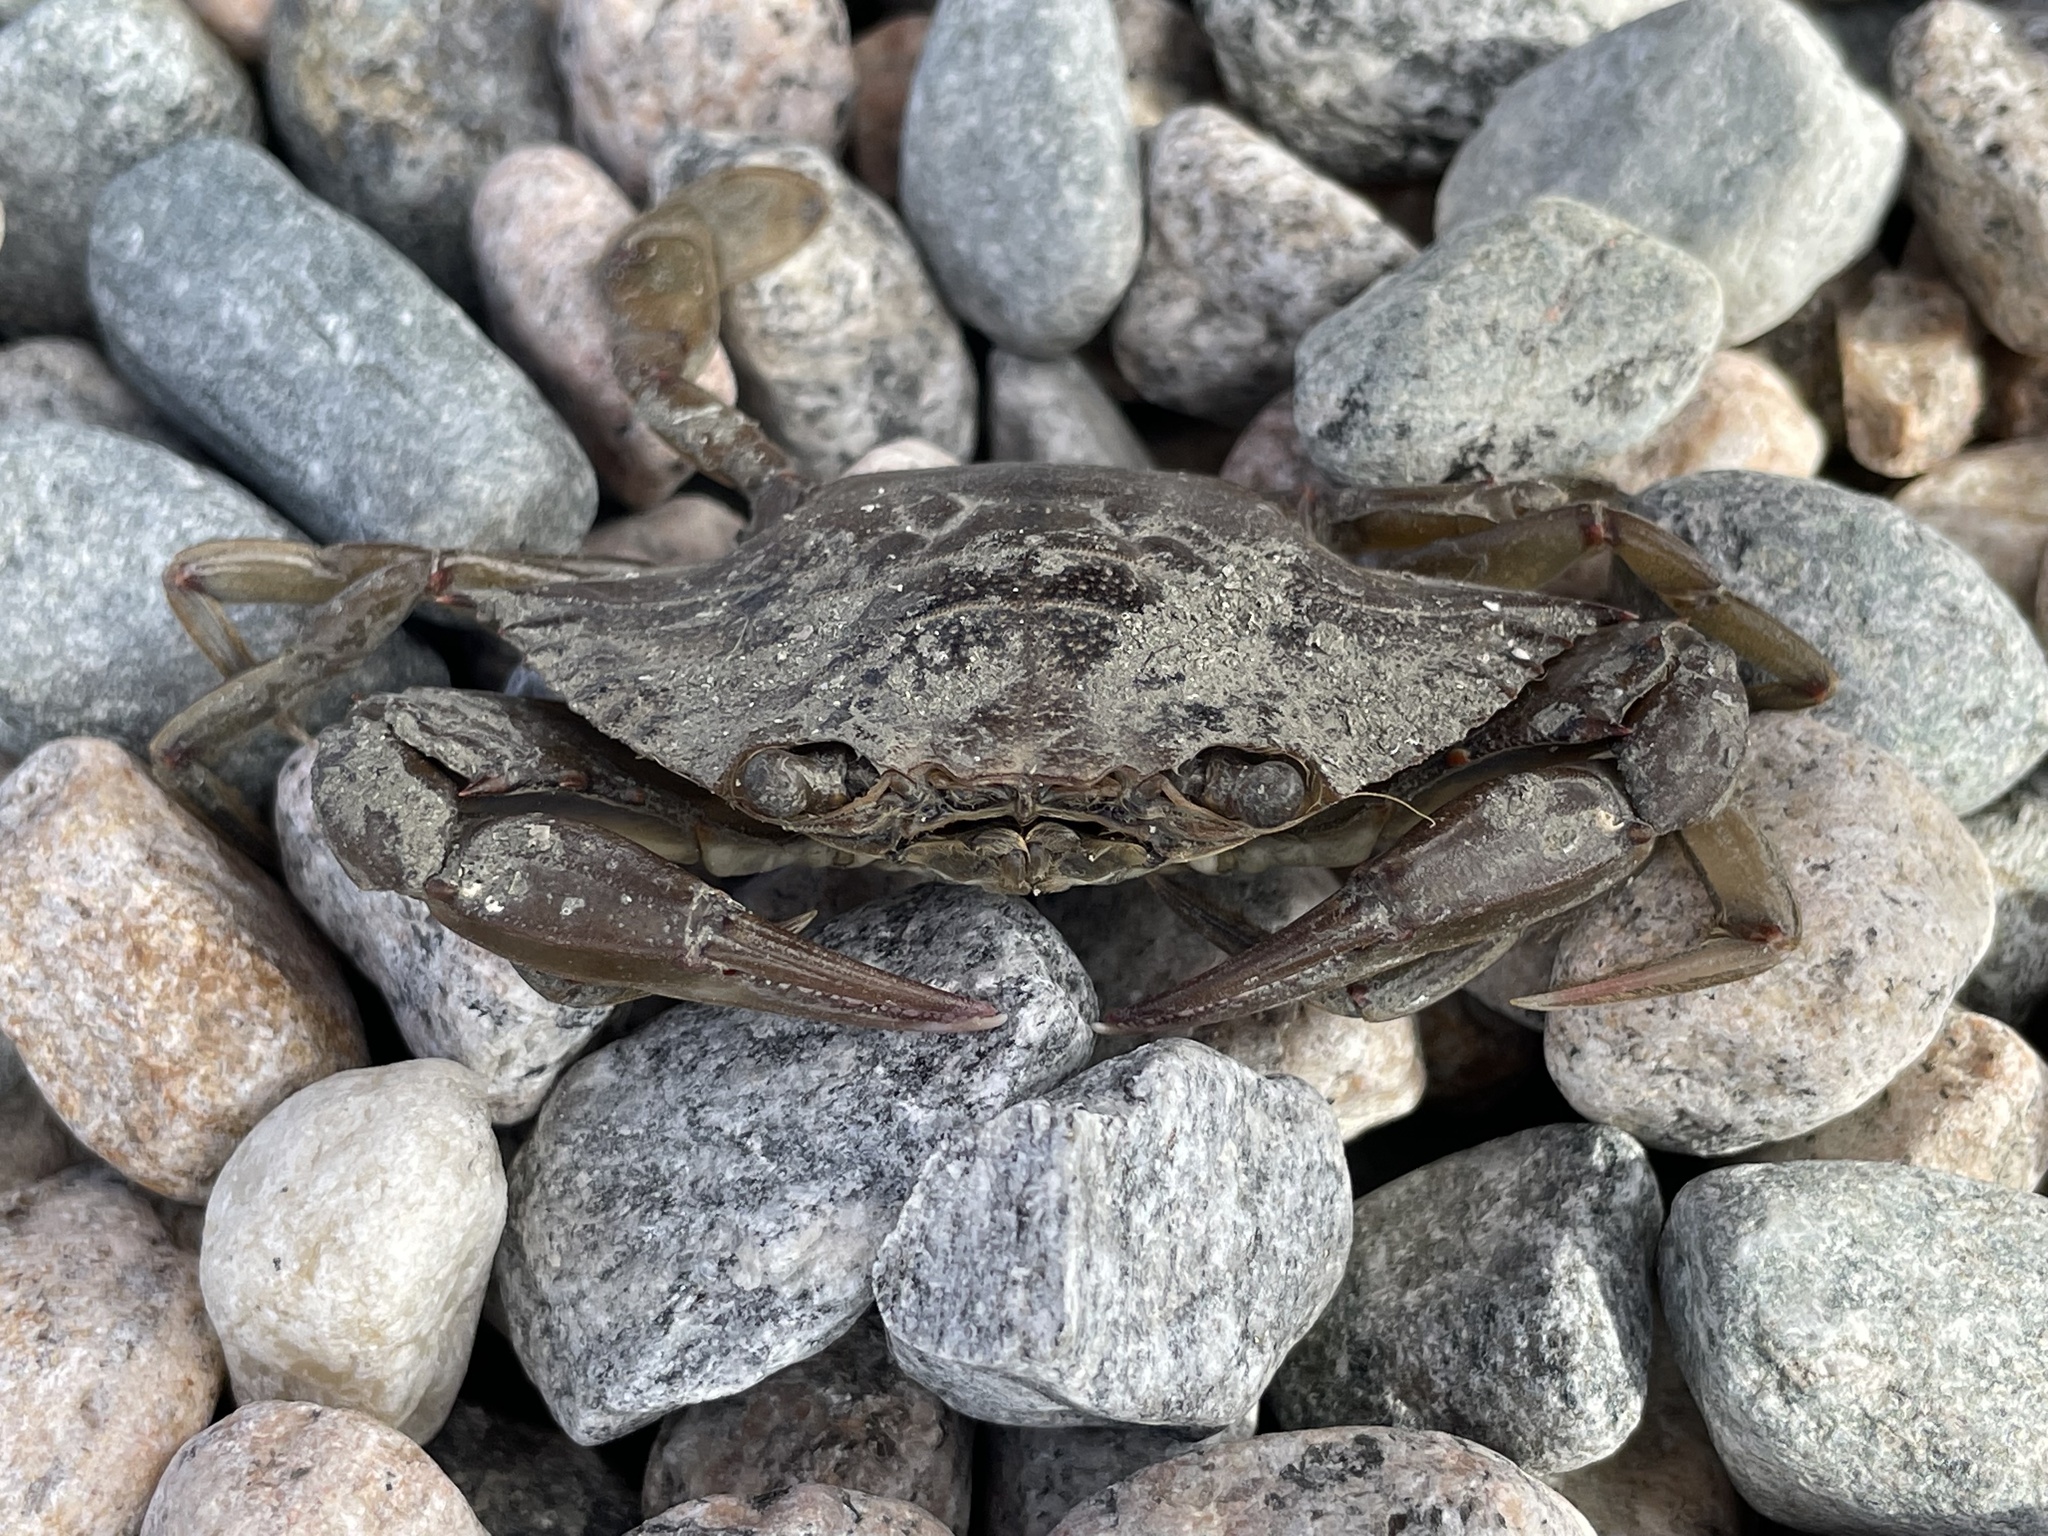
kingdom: Animalia
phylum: Arthropoda
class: Malacostraca
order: Decapoda
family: Portunidae
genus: Callinectes
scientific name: Callinectes sapidus
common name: Blue crab
